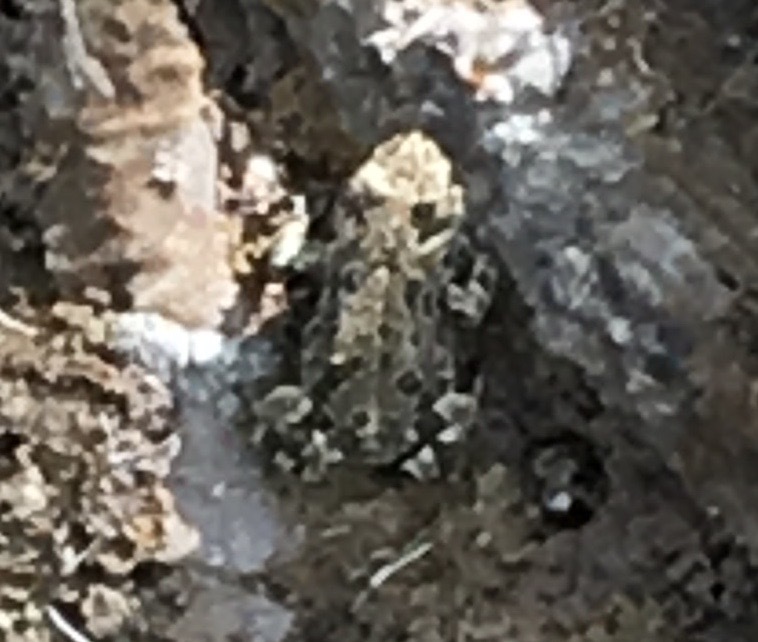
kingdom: Animalia
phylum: Chordata
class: Amphibia
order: Anura
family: Bufonidae
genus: Anaxyrus
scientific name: Anaxyrus boreas
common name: Western toad
